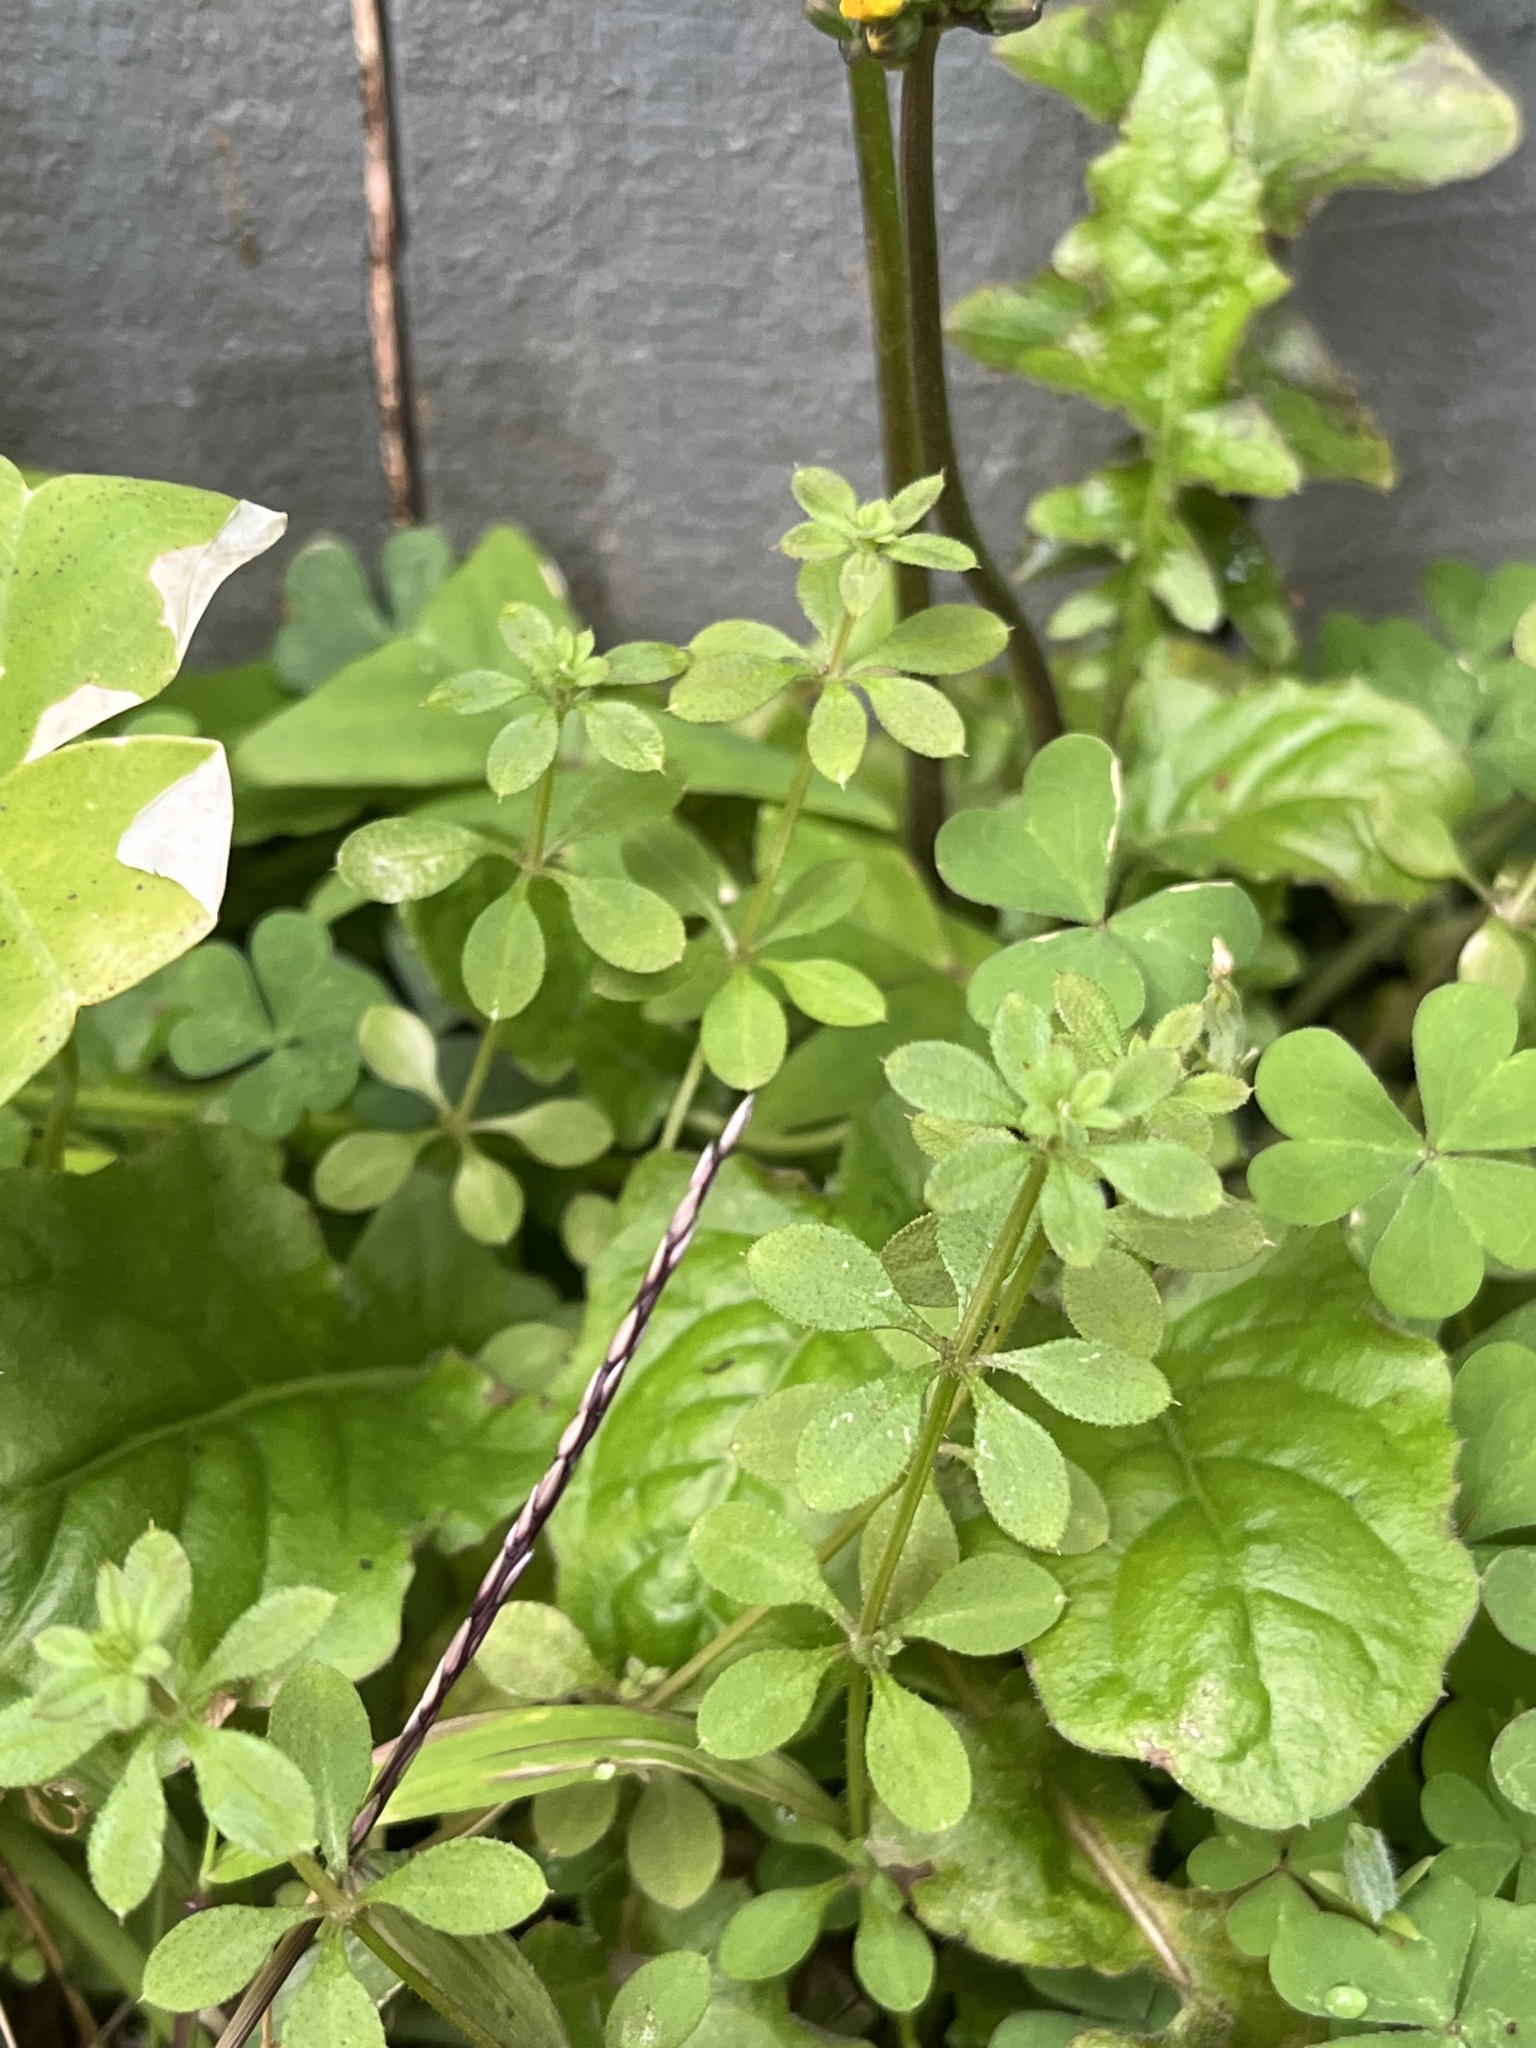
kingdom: Plantae
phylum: Tracheophyta
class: Magnoliopsida
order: Gentianales
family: Rubiaceae
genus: Galium
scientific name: Galium aparine
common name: Cleavers
